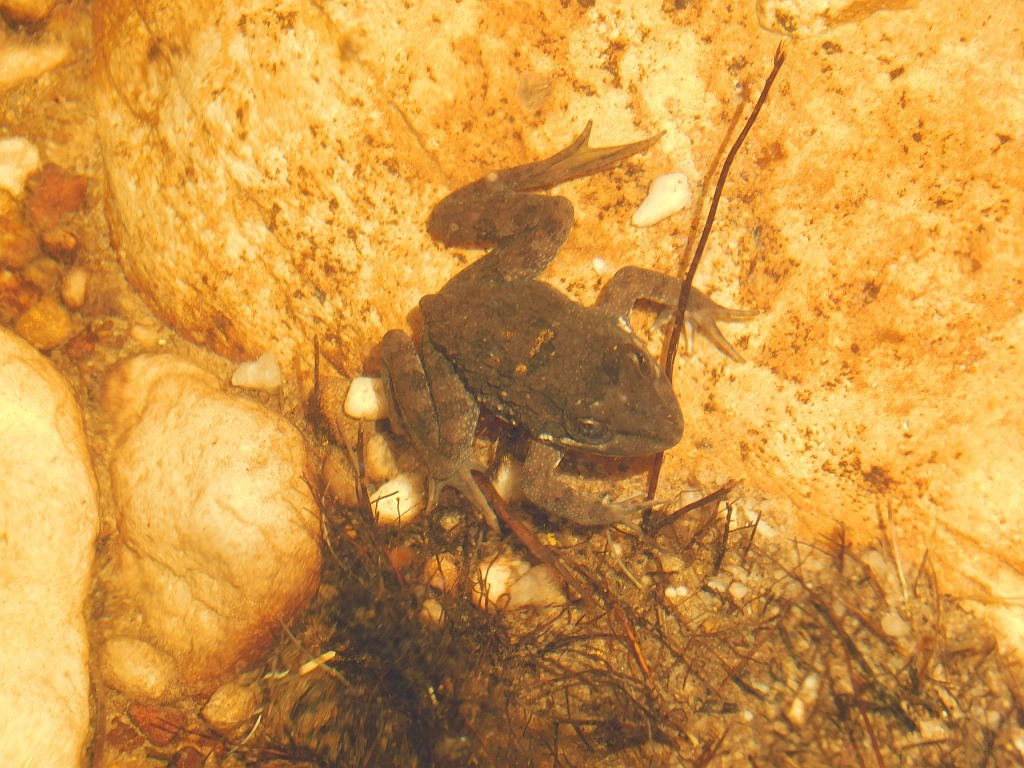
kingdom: Animalia
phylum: Chordata
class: Amphibia
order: Anura
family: Pyxicephalidae
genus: Amietia
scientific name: Amietia fuscigula
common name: Cape rana
